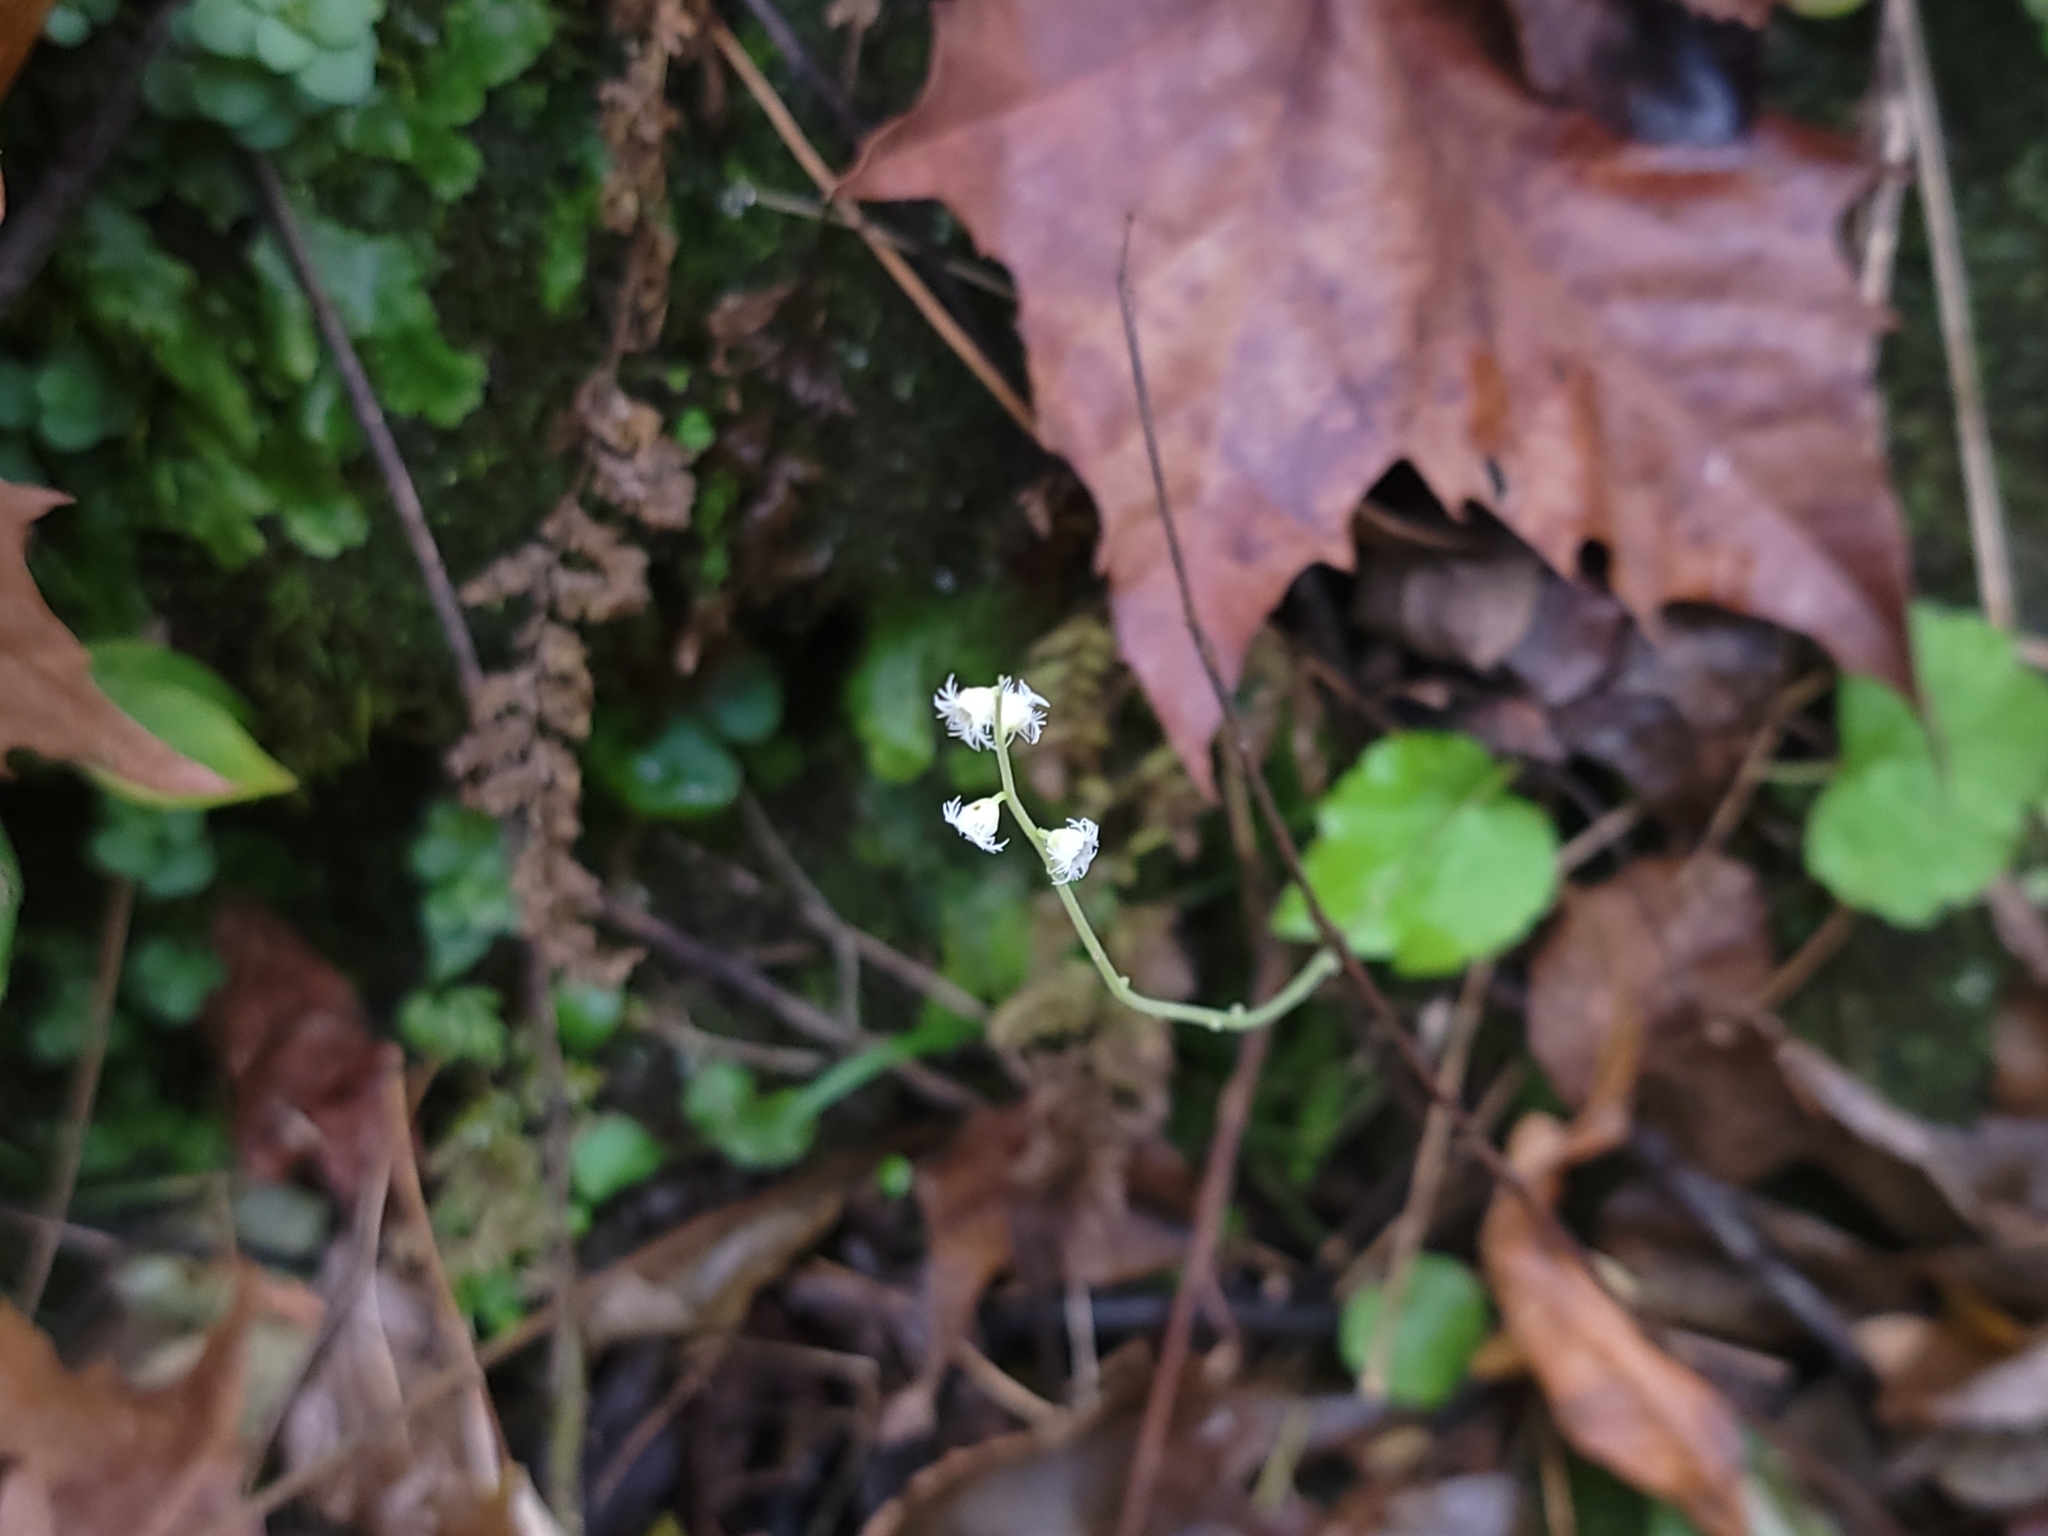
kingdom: Plantae
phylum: Tracheophyta
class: Magnoliopsida
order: Saxifragales
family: Saxifragaceae
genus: Mitella
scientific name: Mitella diphylla
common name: Coolwort
